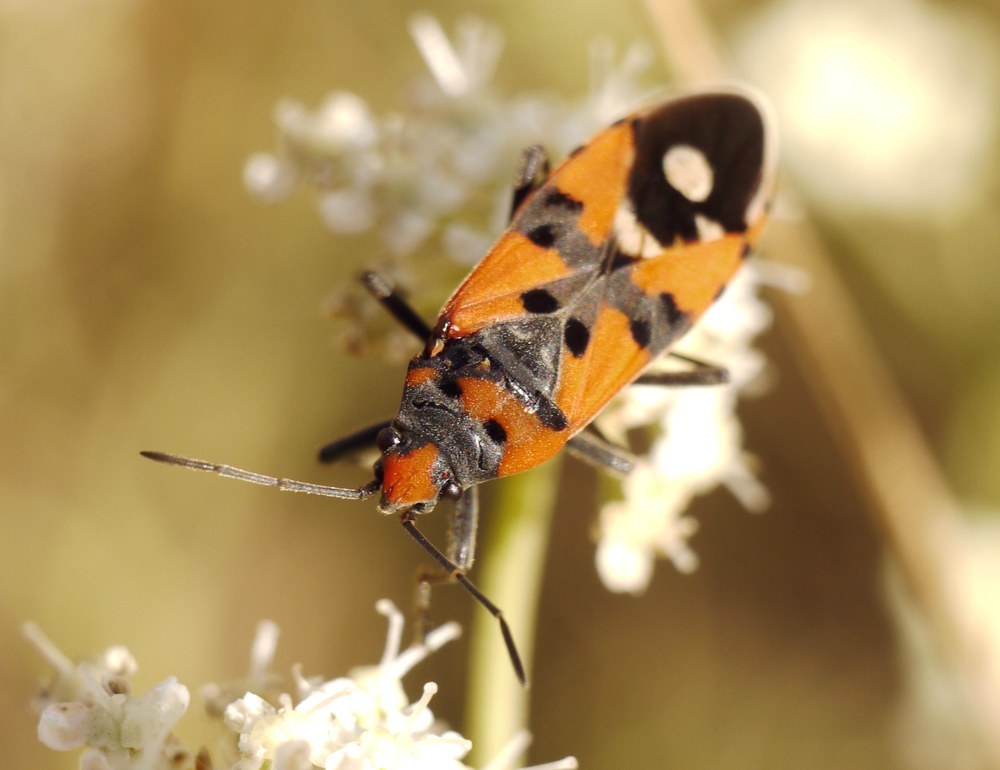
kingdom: Animalia
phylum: Arthropoda
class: Insecta
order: Hemiptera
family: Lygaeidae
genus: Lygaeus
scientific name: Lygaeus simulans
